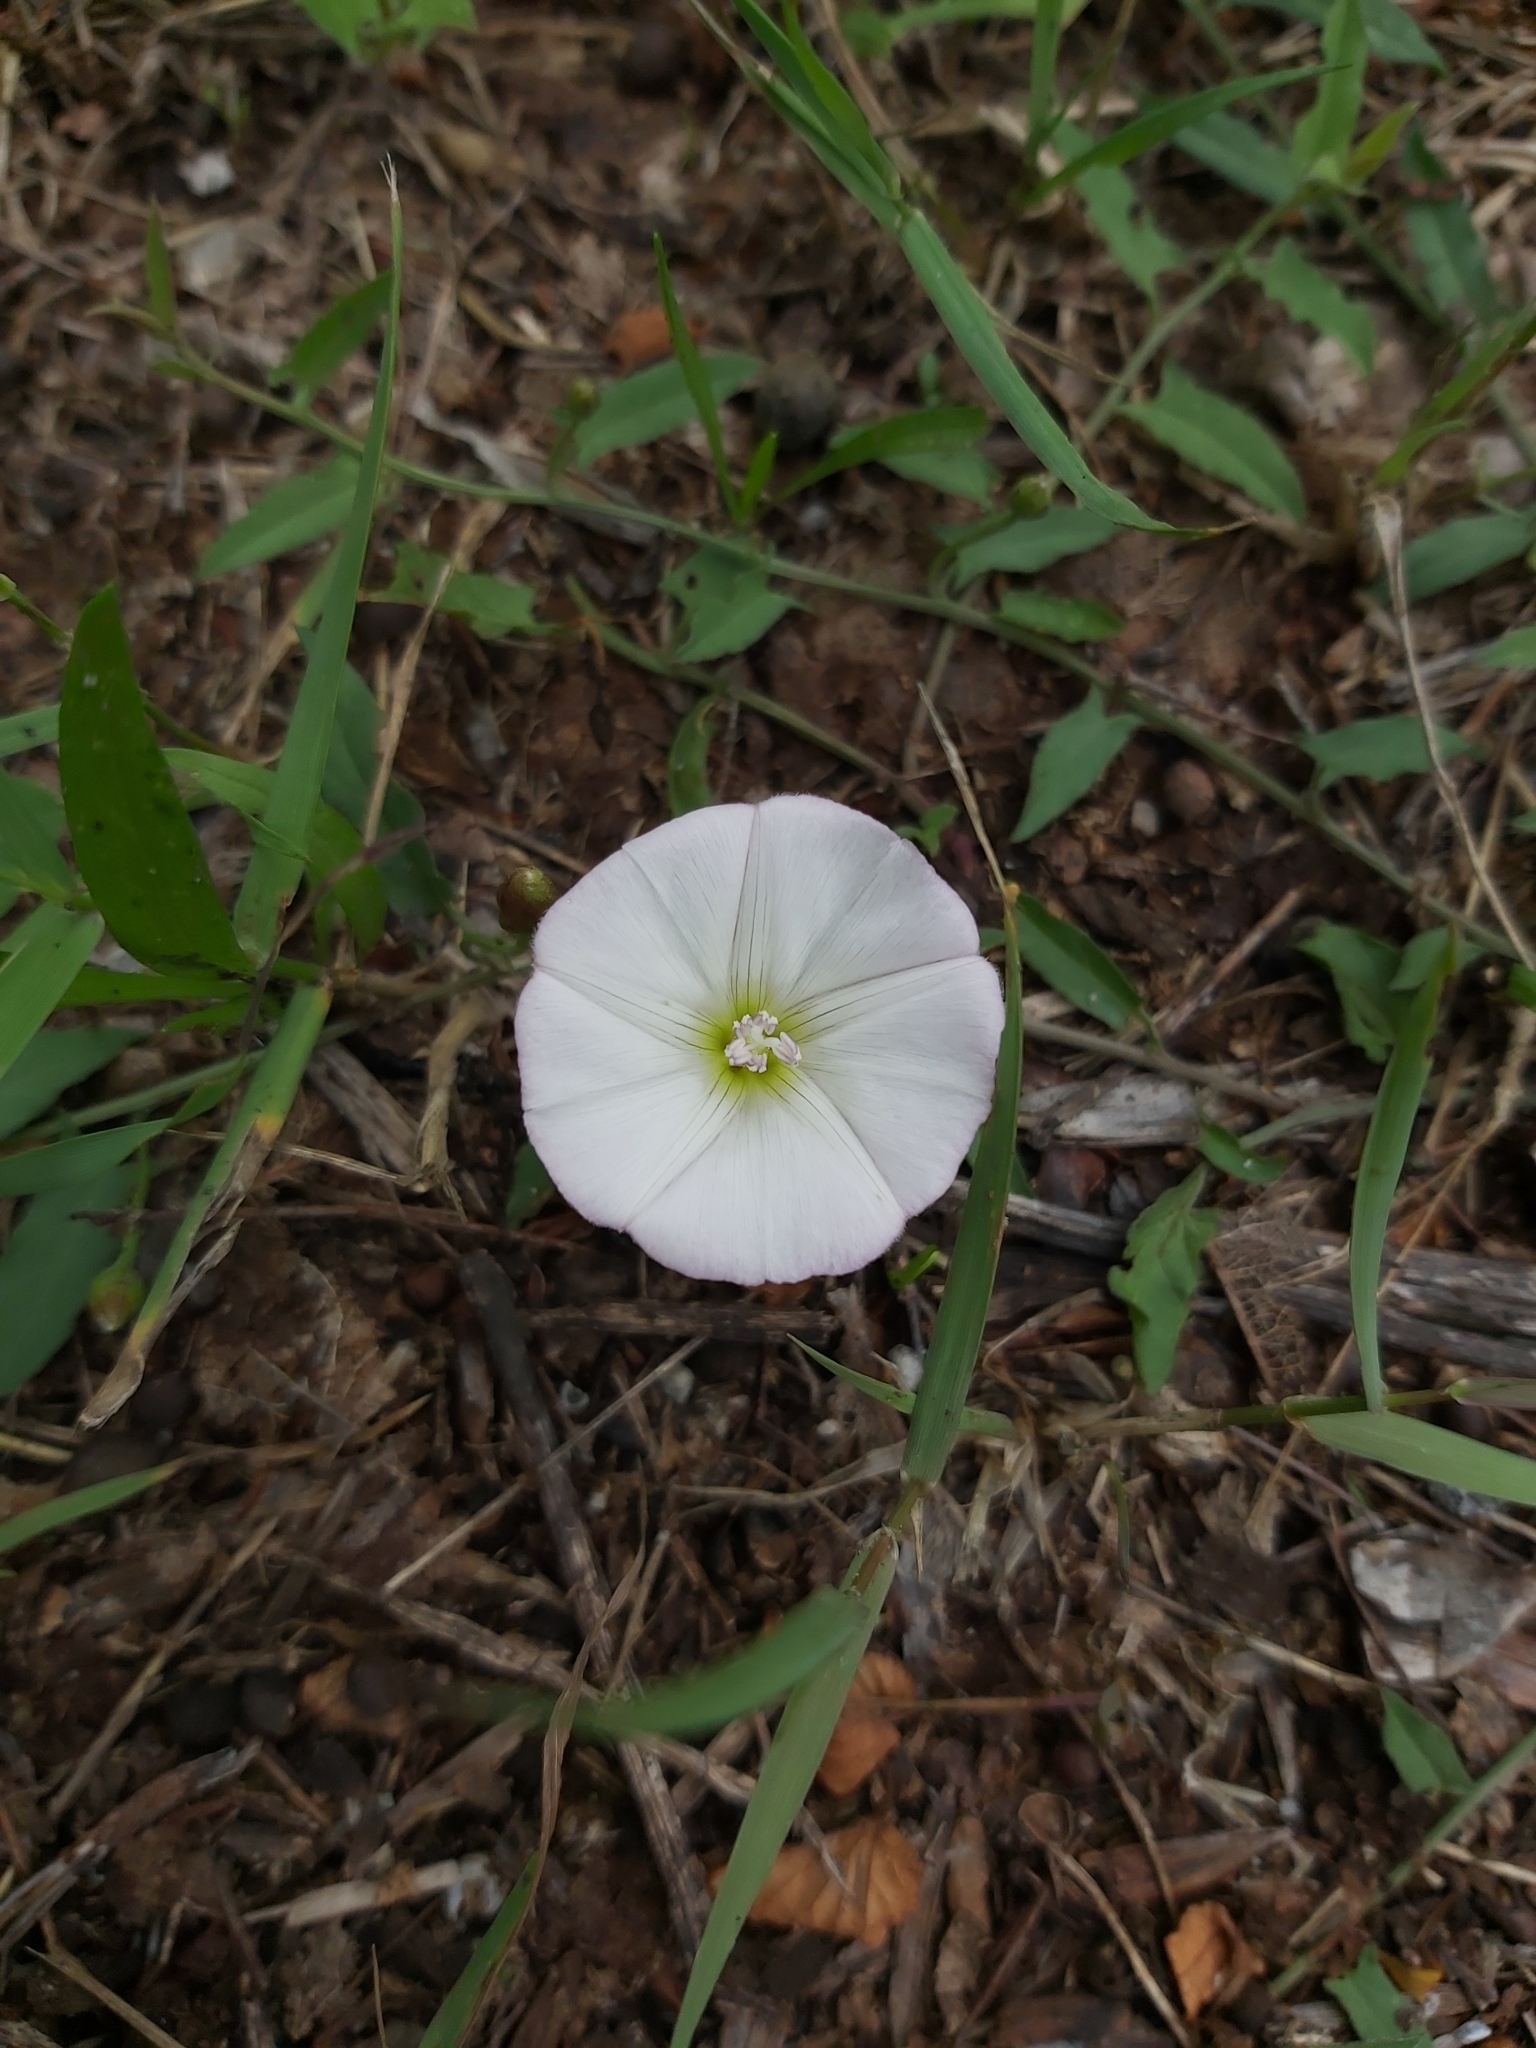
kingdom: Plantae
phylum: Tracheophyta
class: Magnoliopsida
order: Solanales
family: Convolvulaceae
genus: Convolvulus
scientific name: Convolvulus arvensis
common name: Field bindweed
